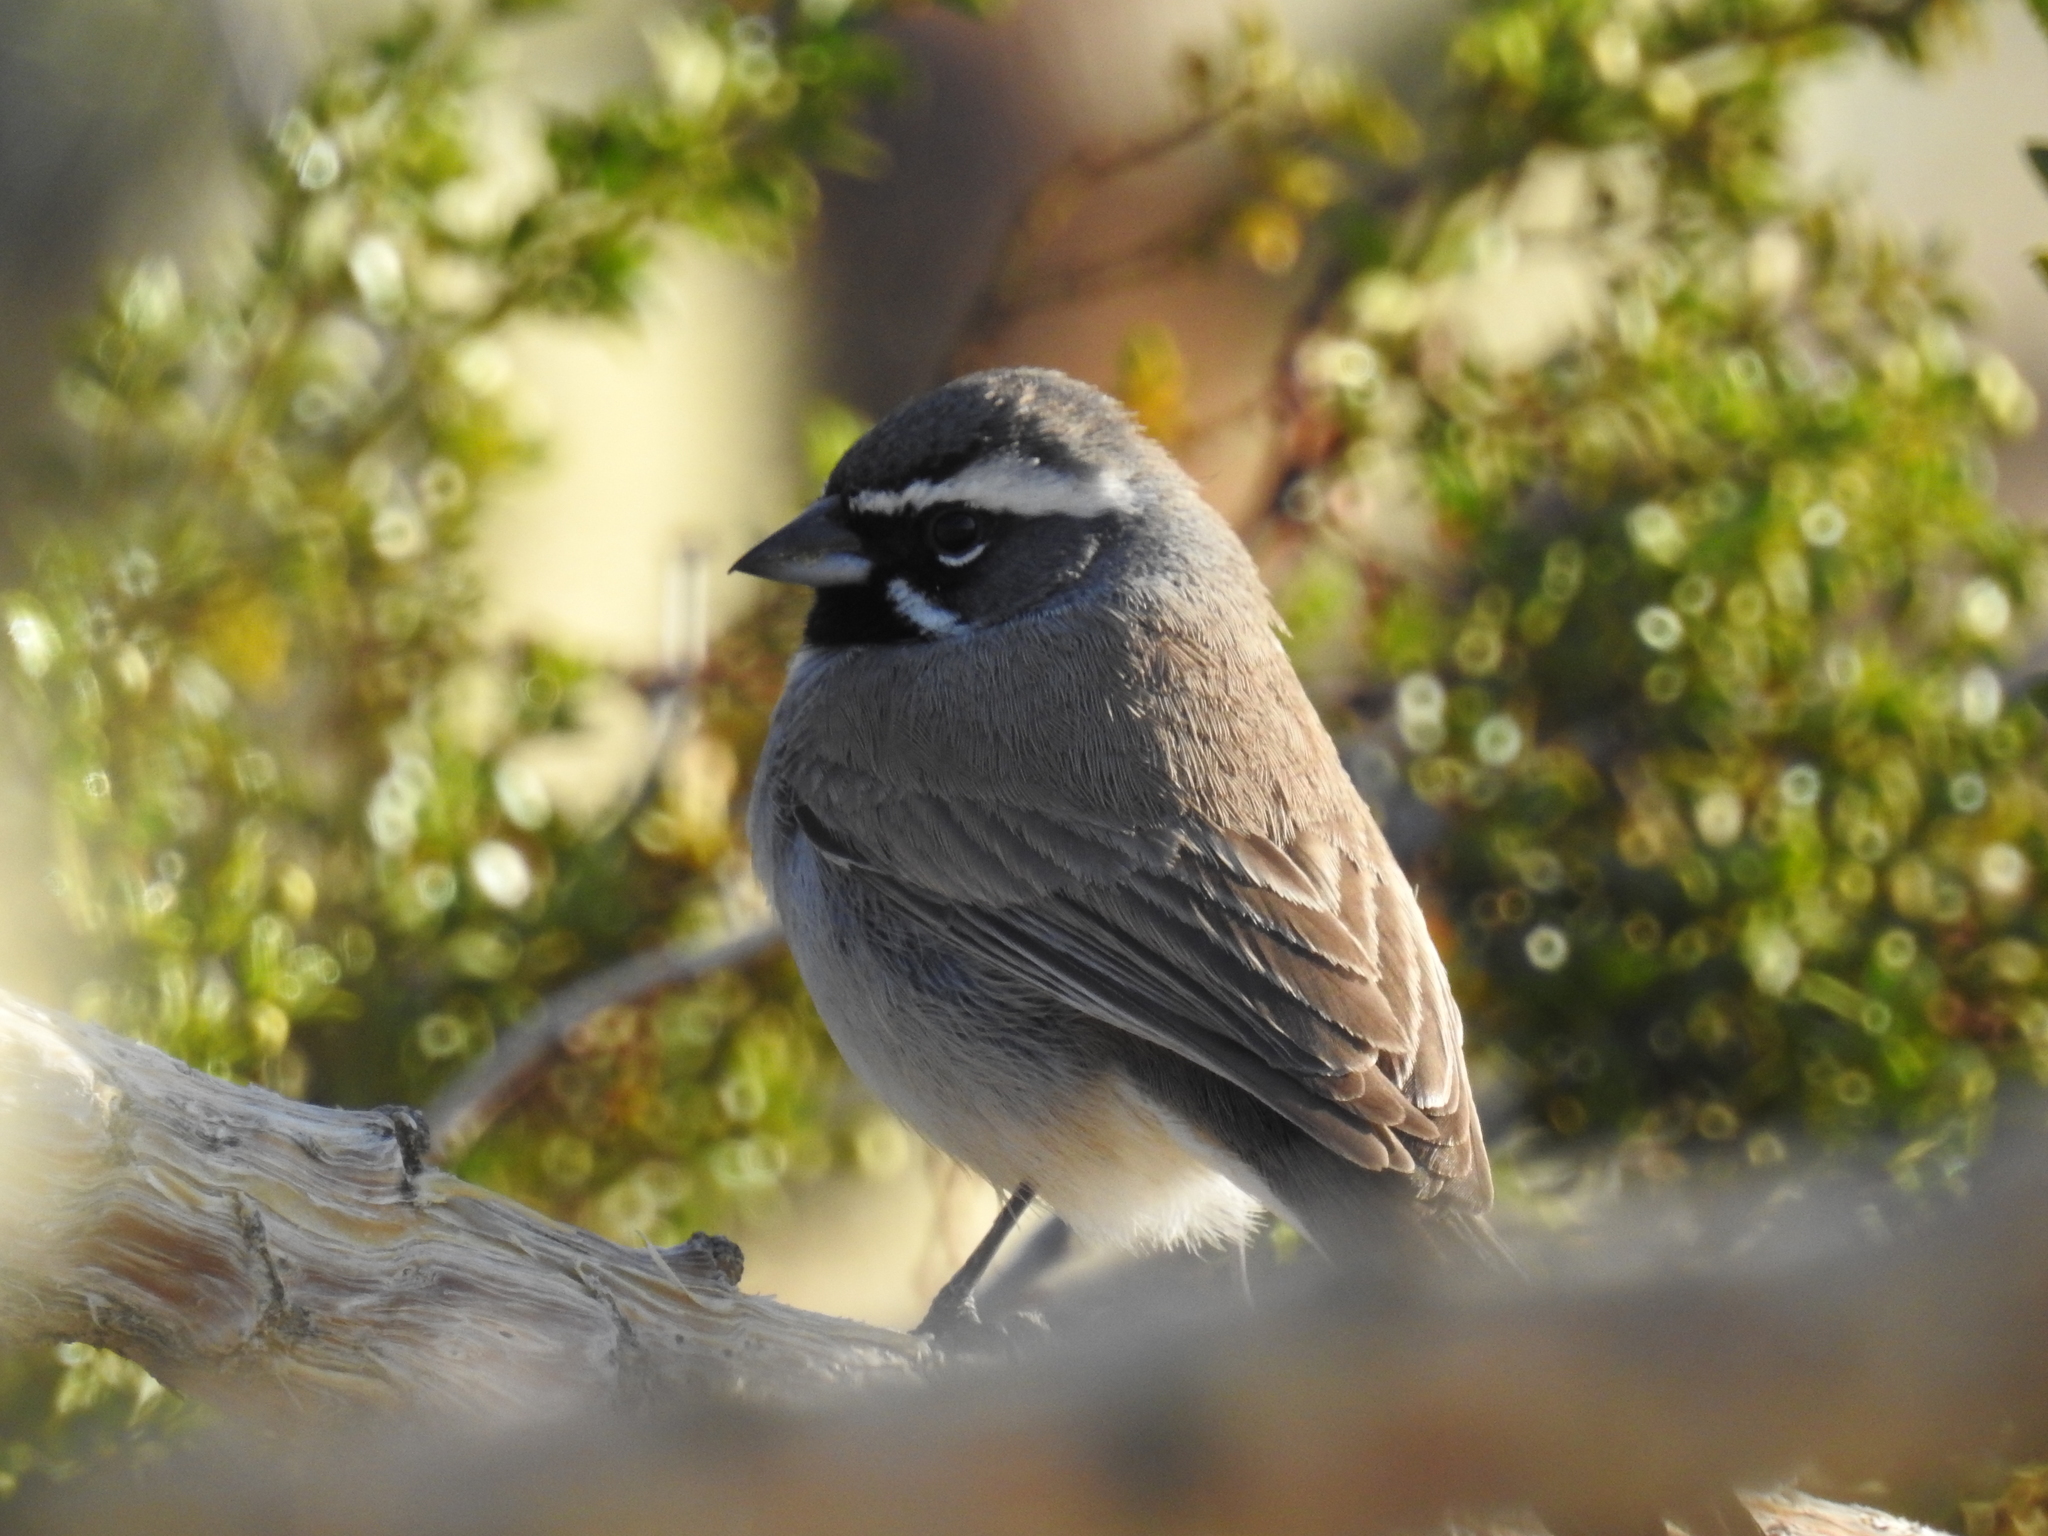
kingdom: Animalia
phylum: Chordata
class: Aves
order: Passeriformes
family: Passerellidae
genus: Amphispiza
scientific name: Amphispiza bilineata
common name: Black-throated sparrow
